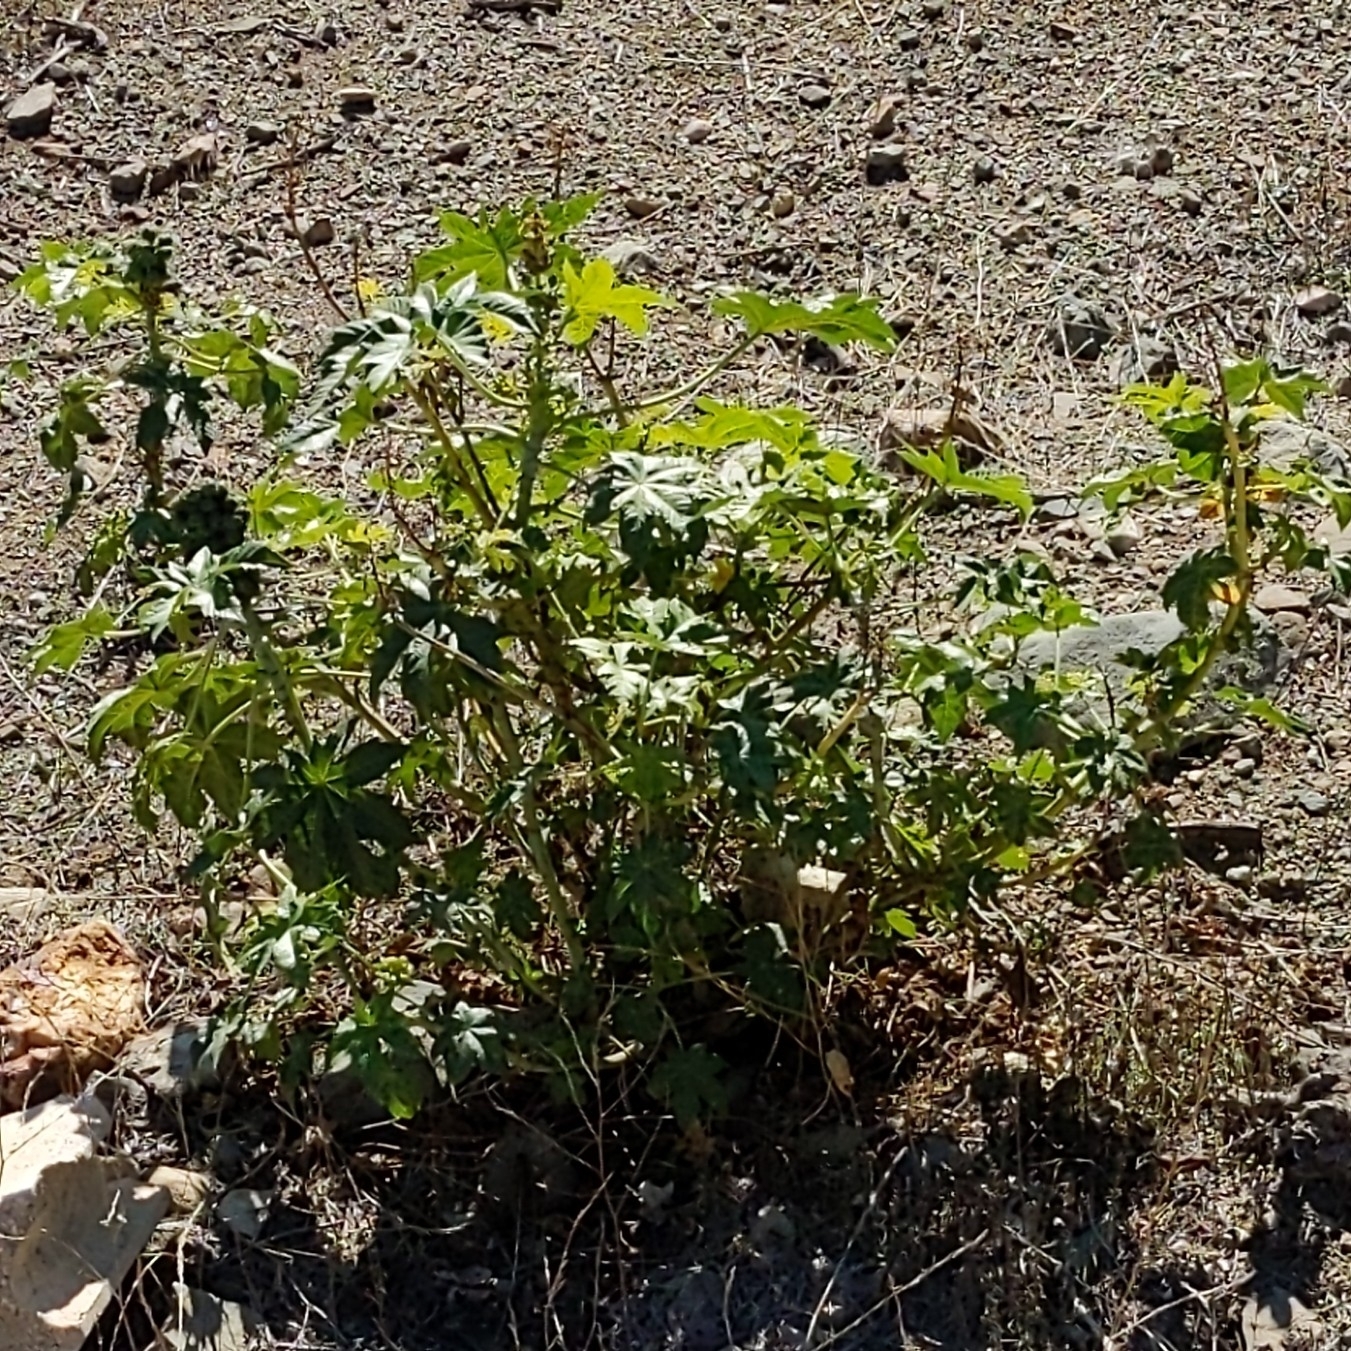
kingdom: Plantae
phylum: Tracheophyta
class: Magnoliopsida
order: Malpighiales
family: Euphorbiaceae
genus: Ricinus
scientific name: Ricinus communis
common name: Castor-oil-plant
